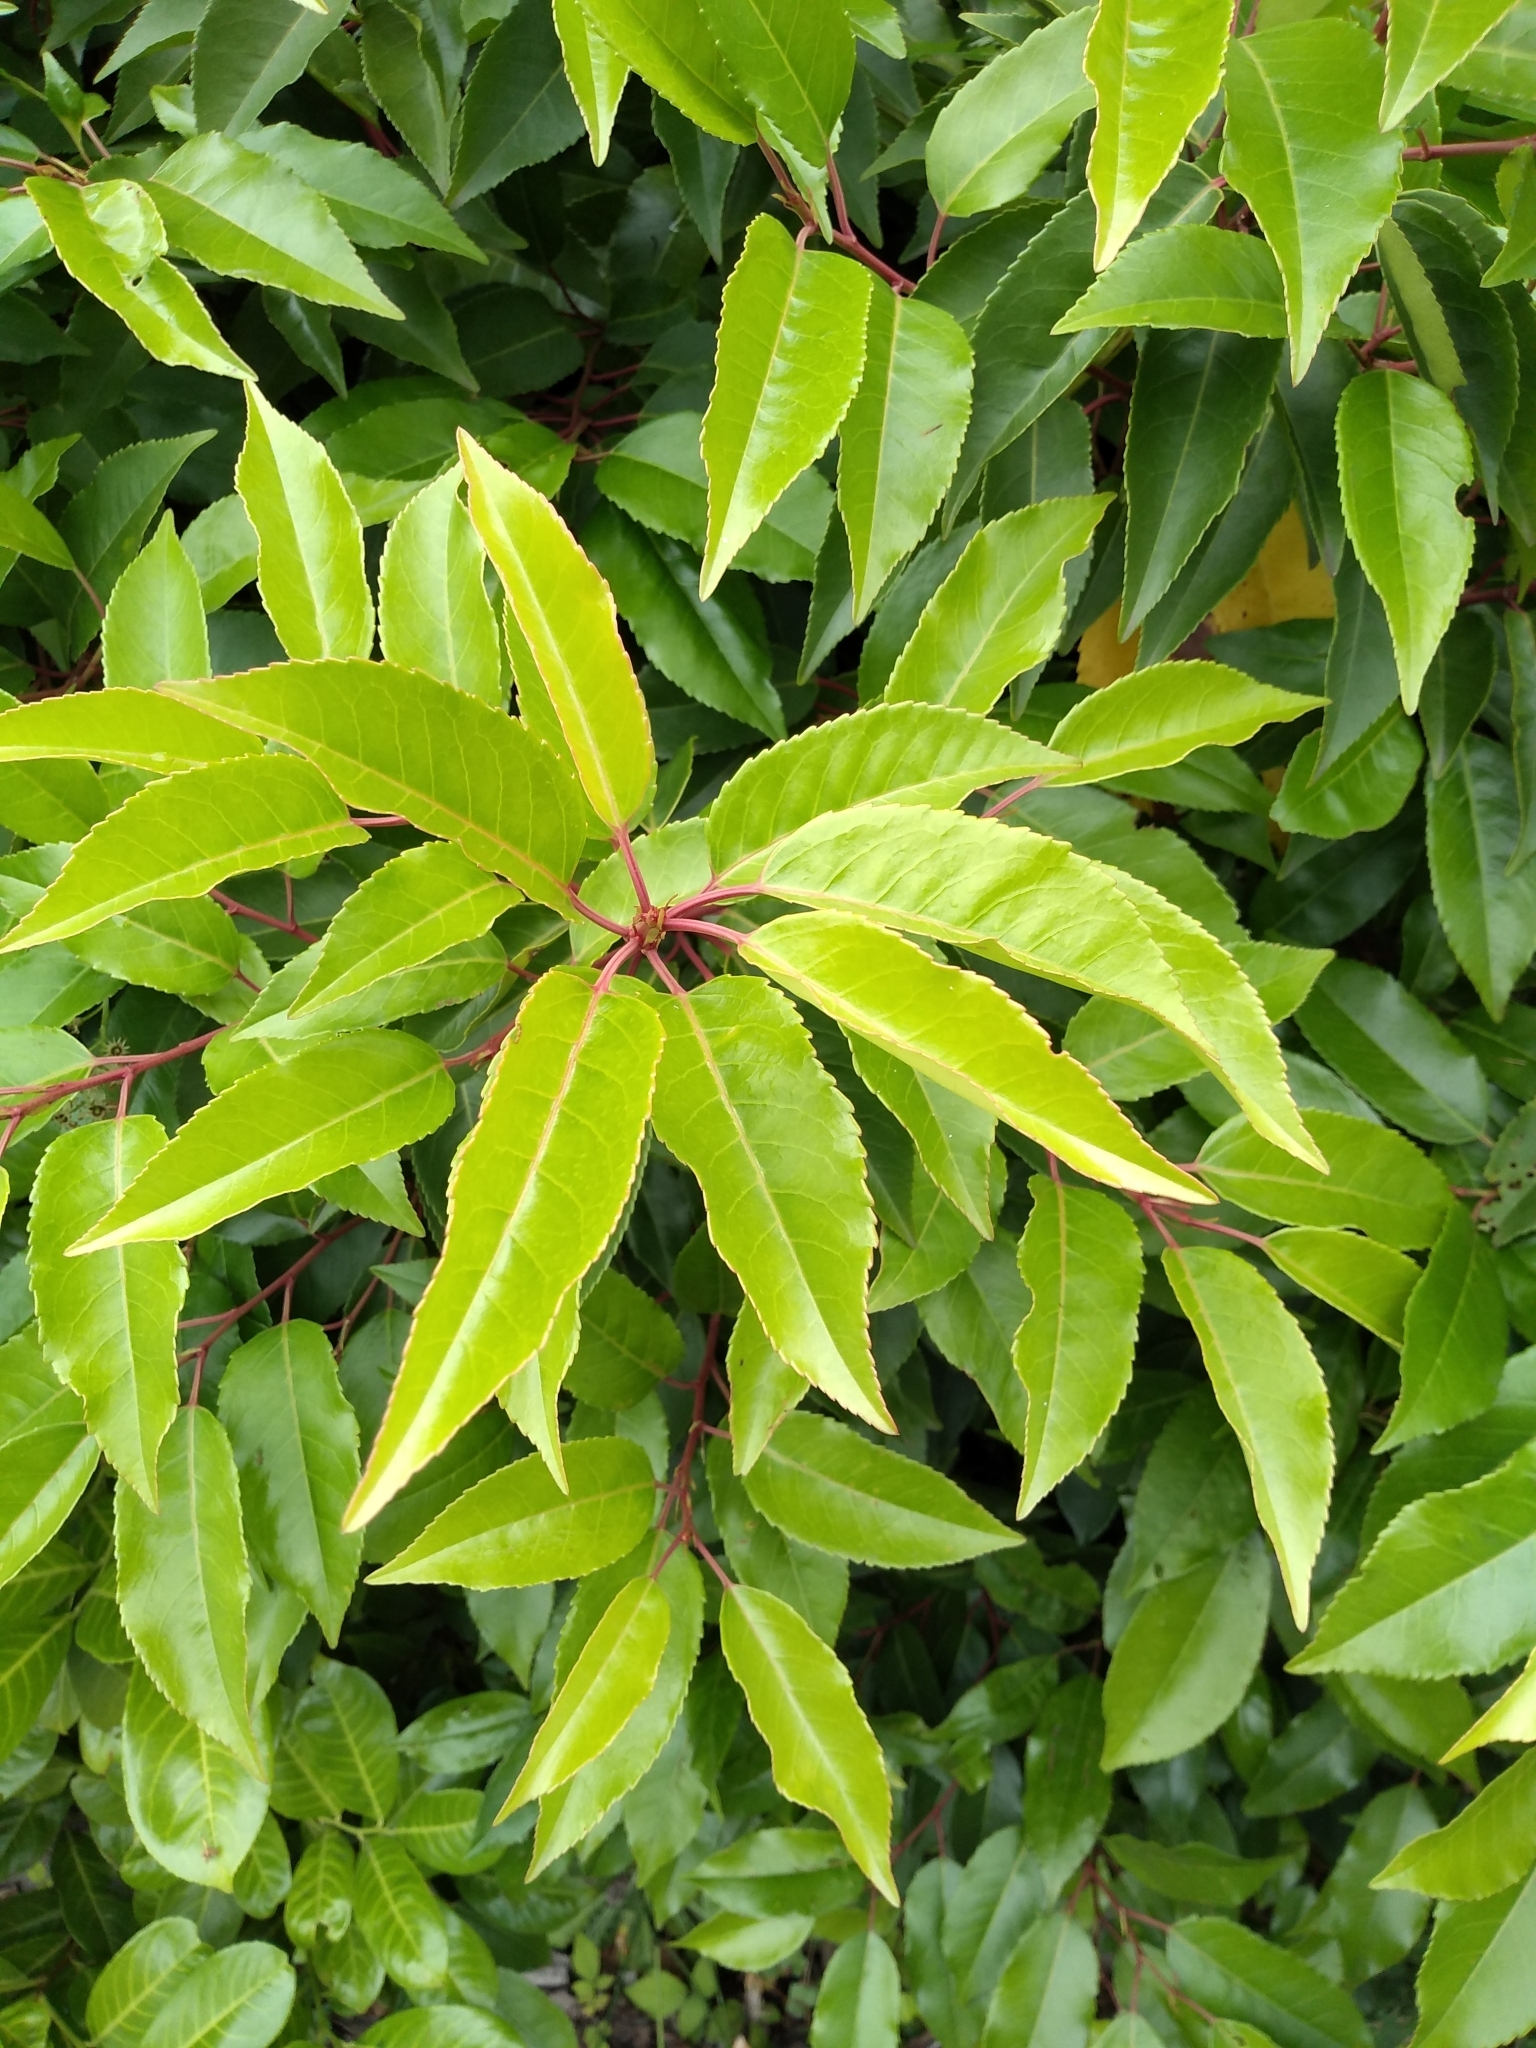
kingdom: Plantae
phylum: Tracheophyta
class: Magnoliopsida
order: Rosales
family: Rosaceae
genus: Prunus
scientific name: Prunus lusitanica
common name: Portugal laurel
